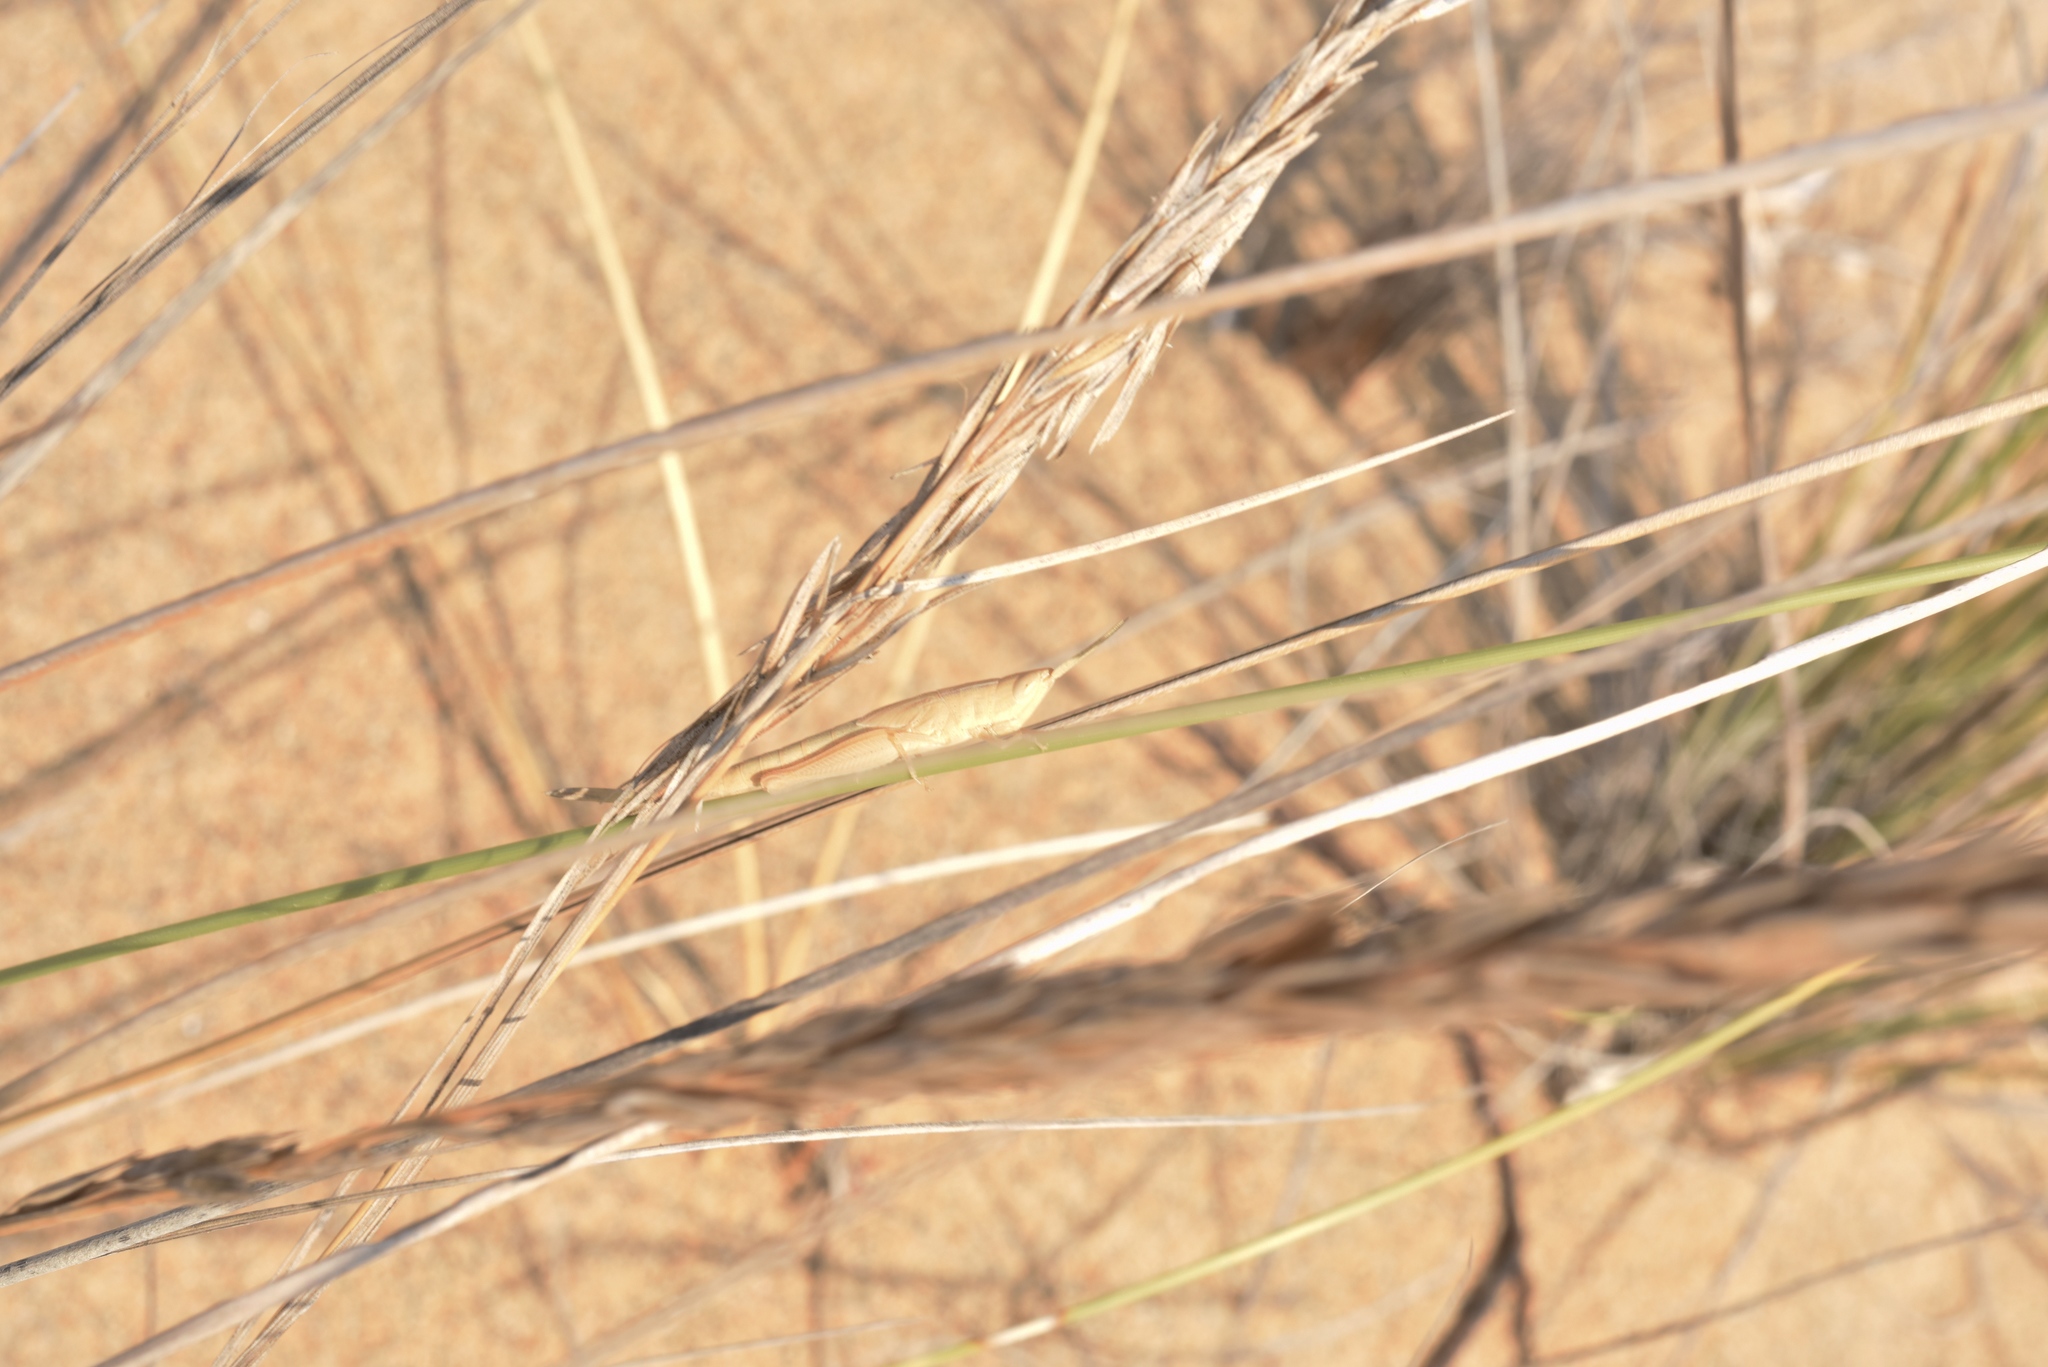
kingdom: Animalia
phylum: Arthropoda
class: Insecta
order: Orthoptera
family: Acrididae
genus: Ochrilidia
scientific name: Ochrilidia nuragica
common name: Sardinian cylindric grasshopper
